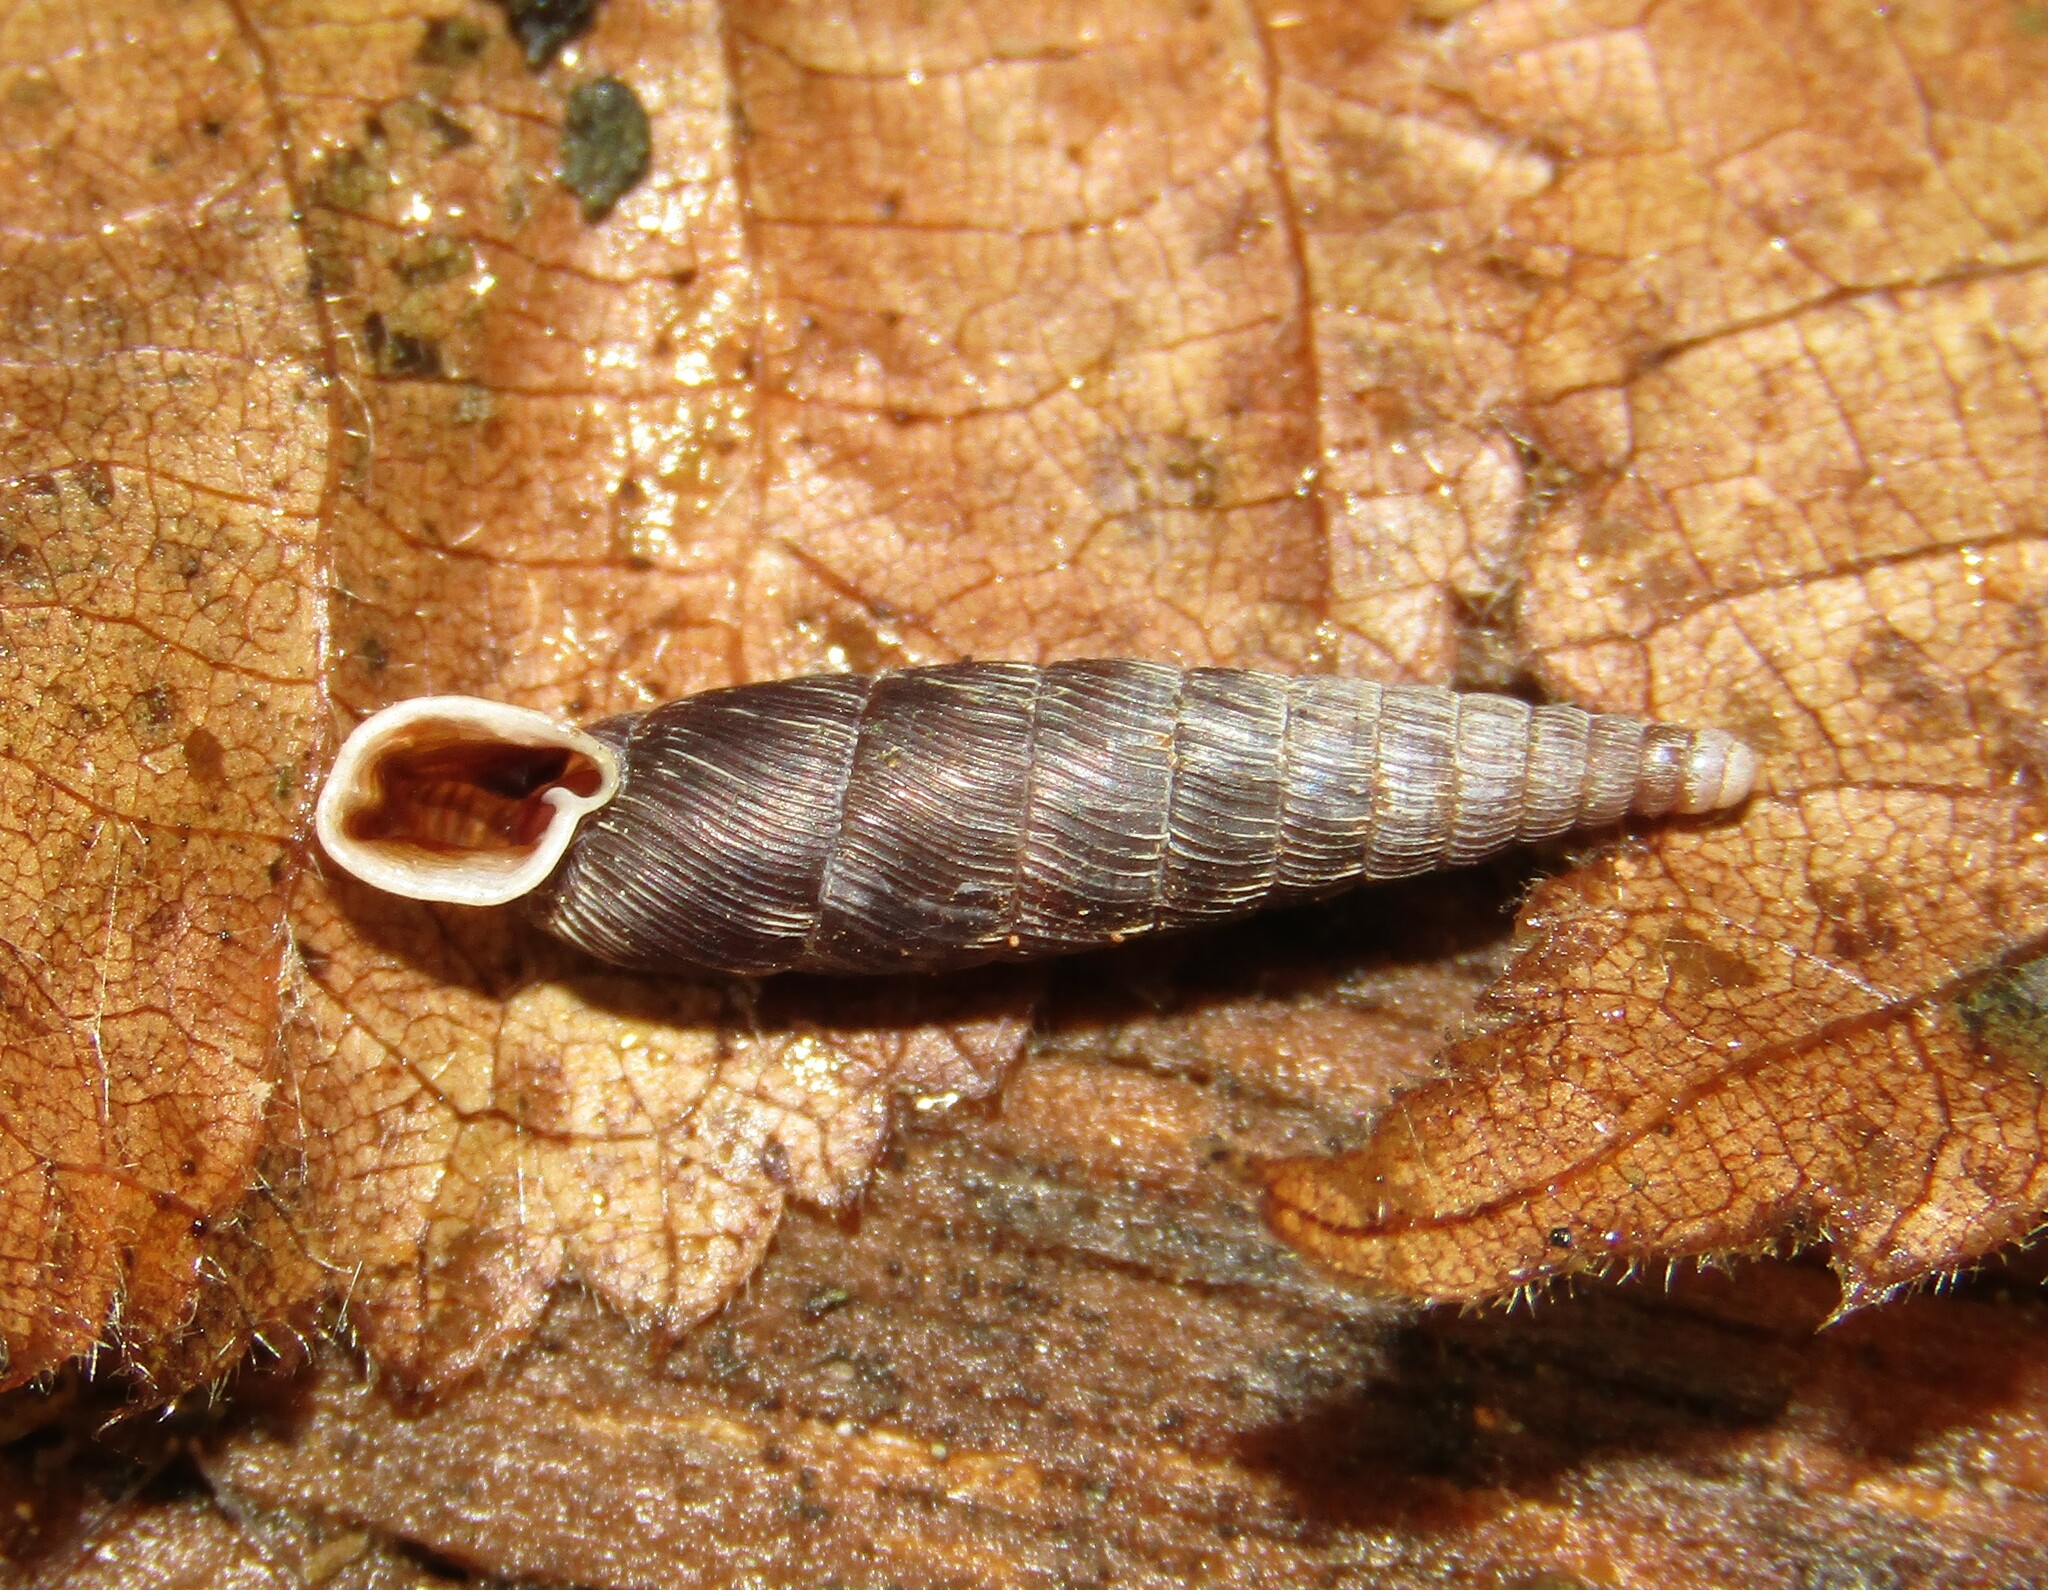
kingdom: Animalia
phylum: Mollusca
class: Gastropoda
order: Stylommatophora
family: Clausiliidae
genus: Scrobifera
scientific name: Scrobifera taurica
